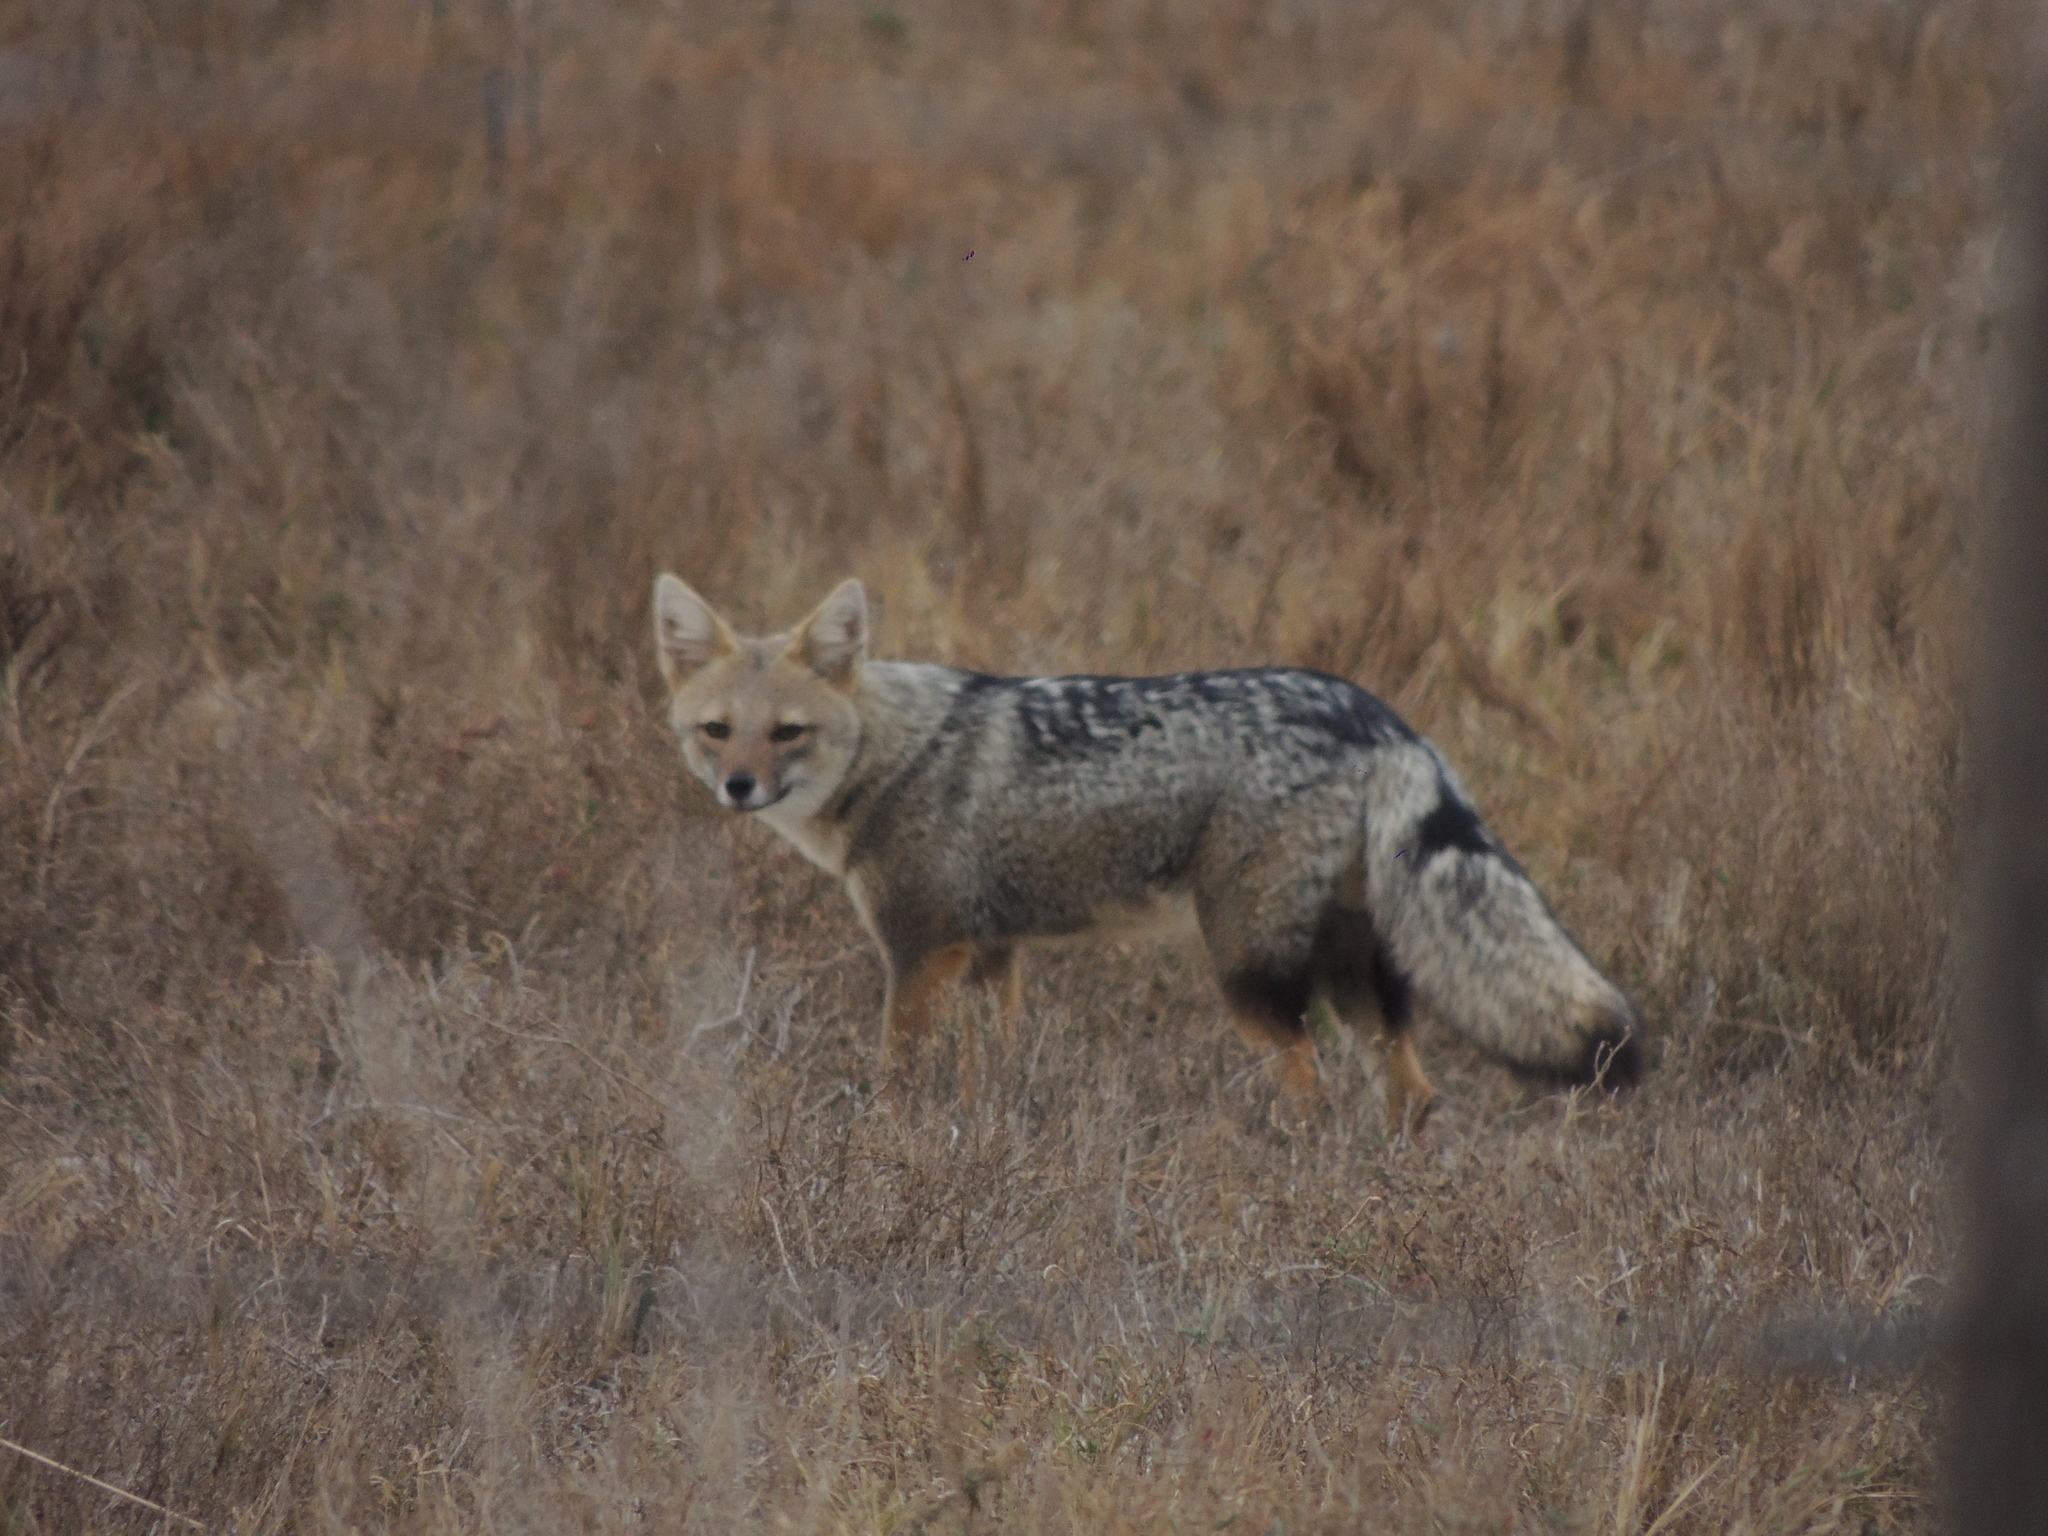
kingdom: Animalia
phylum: Chordata
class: Mammalia
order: Carnivora
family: Canidae
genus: Lycalopex
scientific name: Lycalopex gymnocercus
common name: Pampas fox
